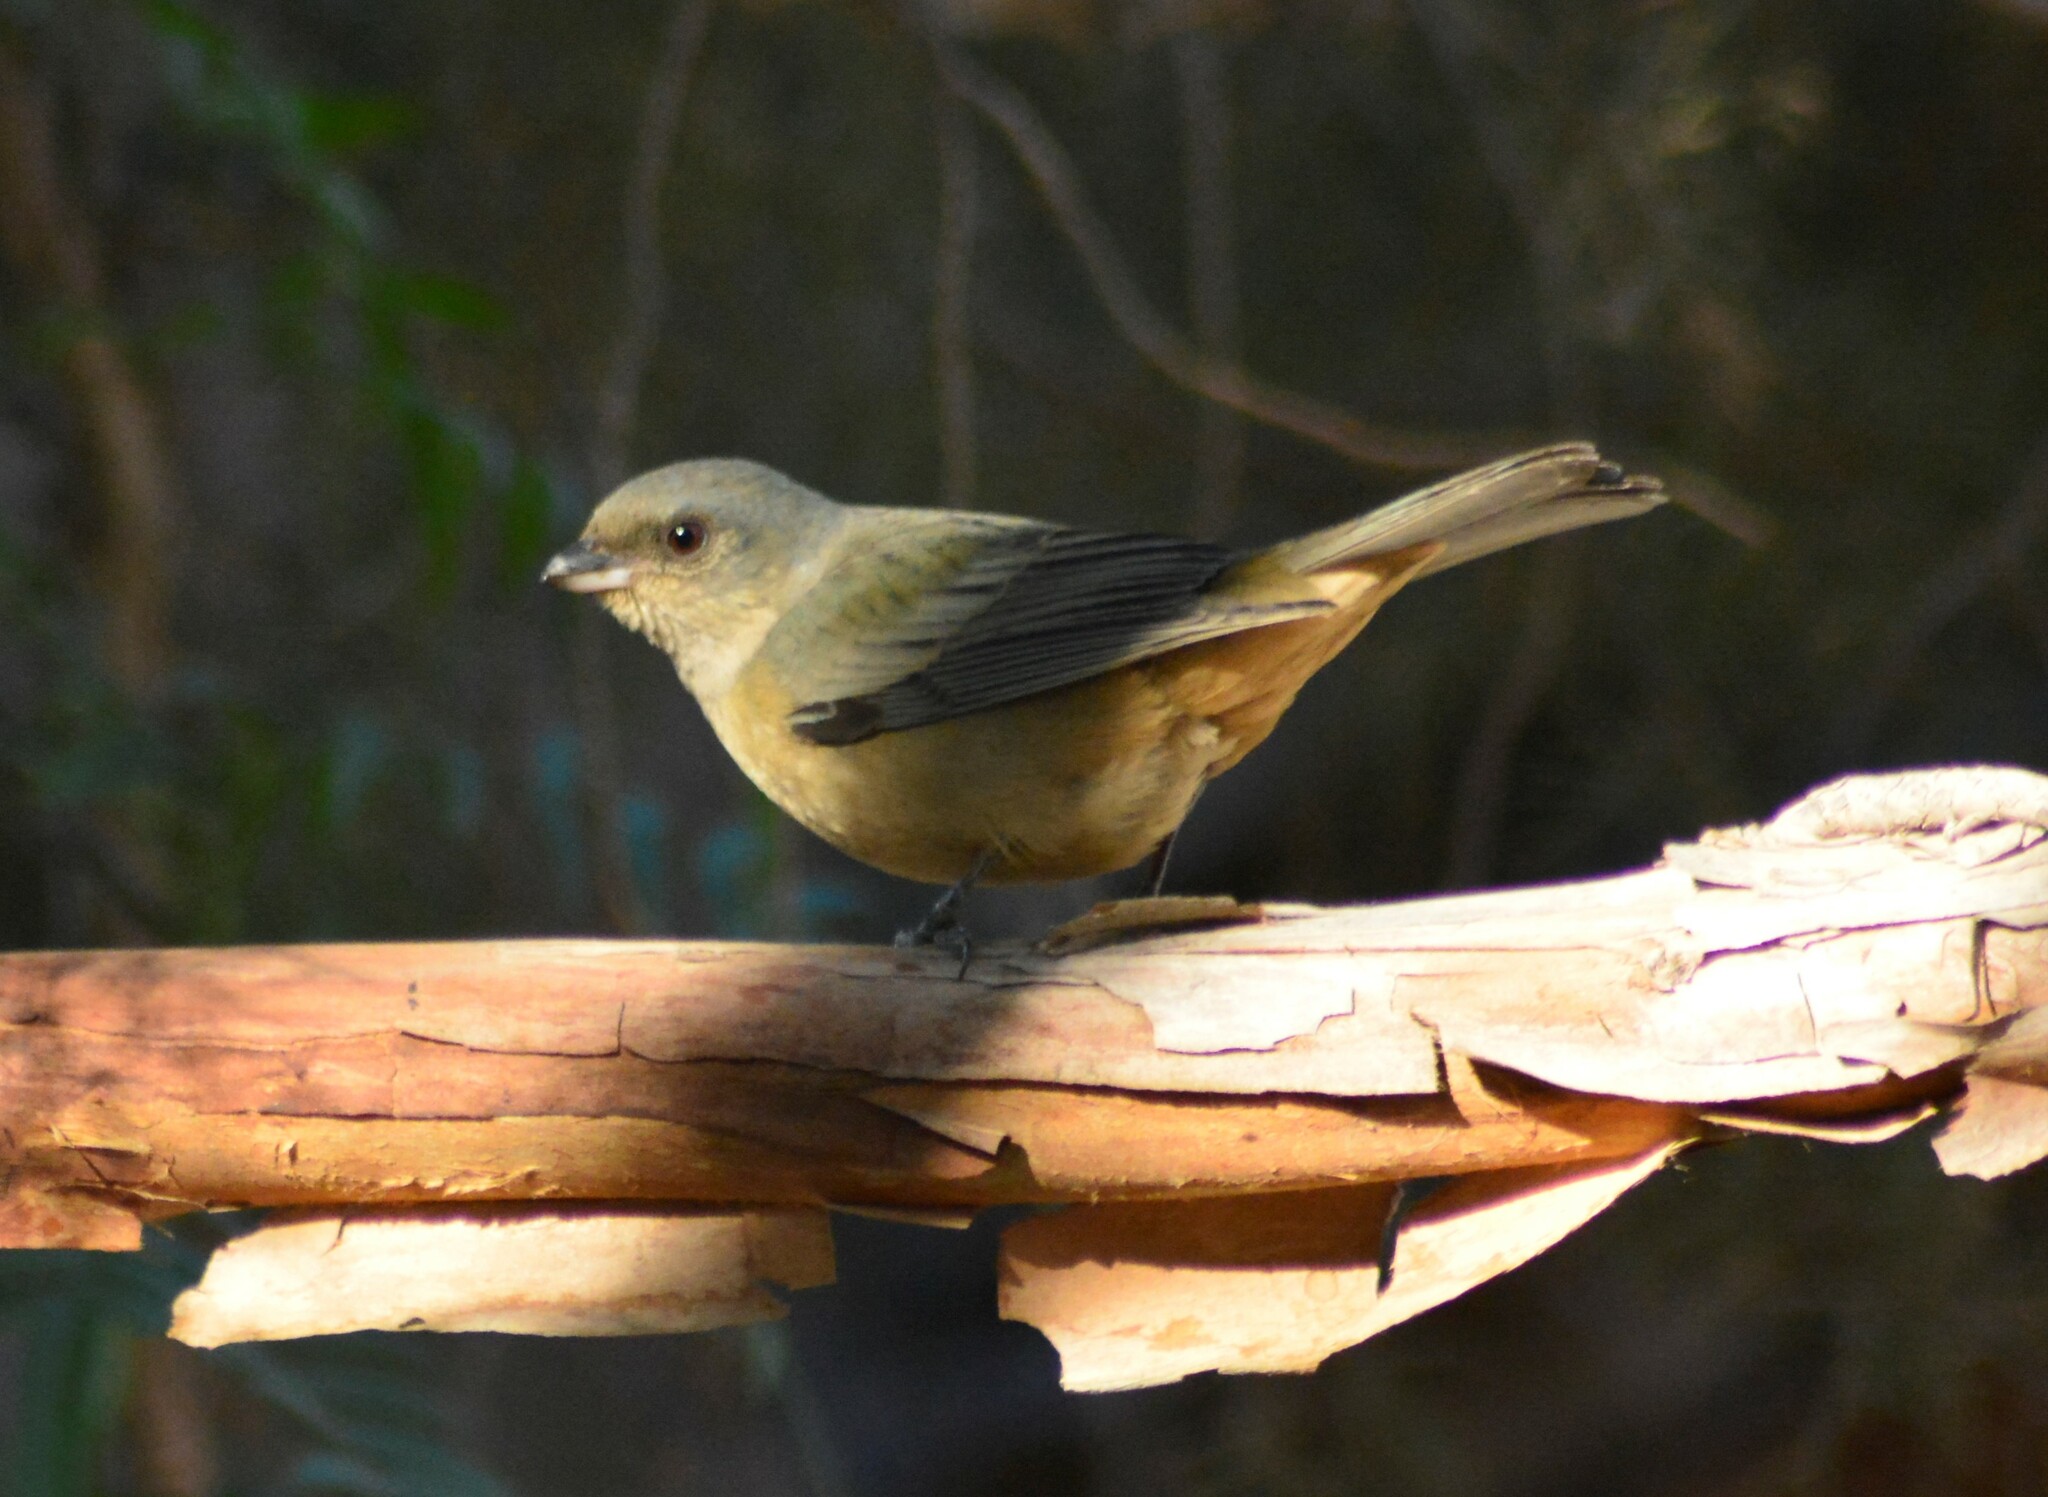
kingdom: Animalia
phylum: Chordata
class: Aves
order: Passeriformes
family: Thraupidae
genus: Rauenia
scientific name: Rauenia bonariensis
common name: Blue-and-yellow tanager
